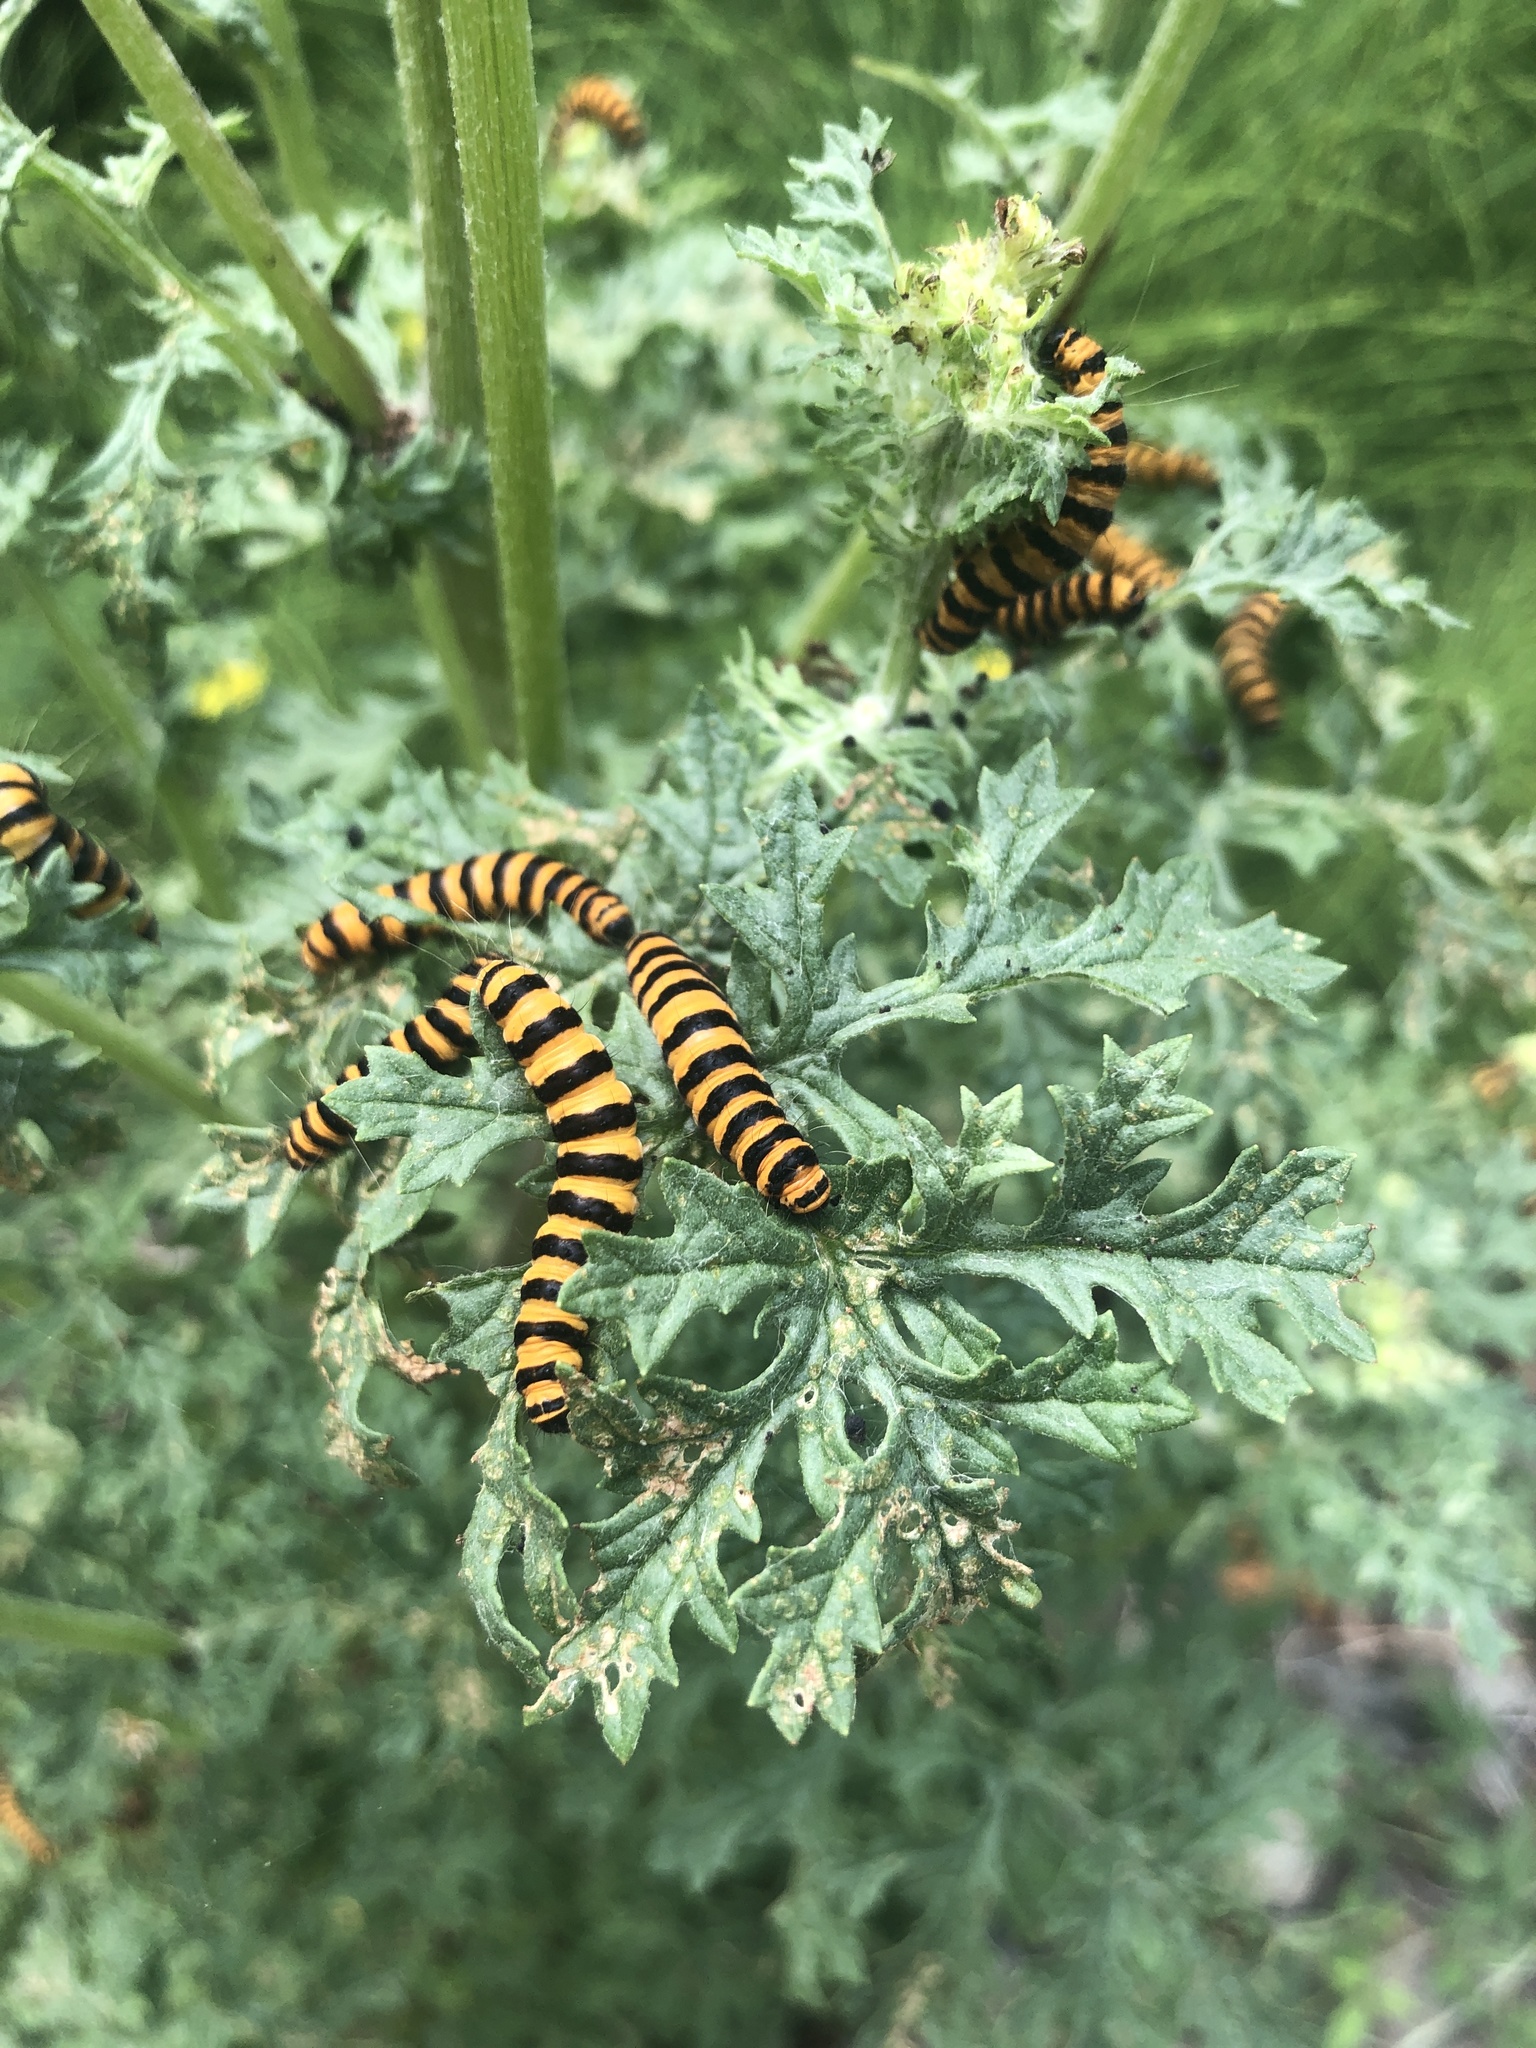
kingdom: Animalia
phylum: Arthropoda
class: Insecta
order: Lepidoptera
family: Erebidae
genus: Tyria
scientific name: Tyria jacobaeae
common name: Cinnabar
